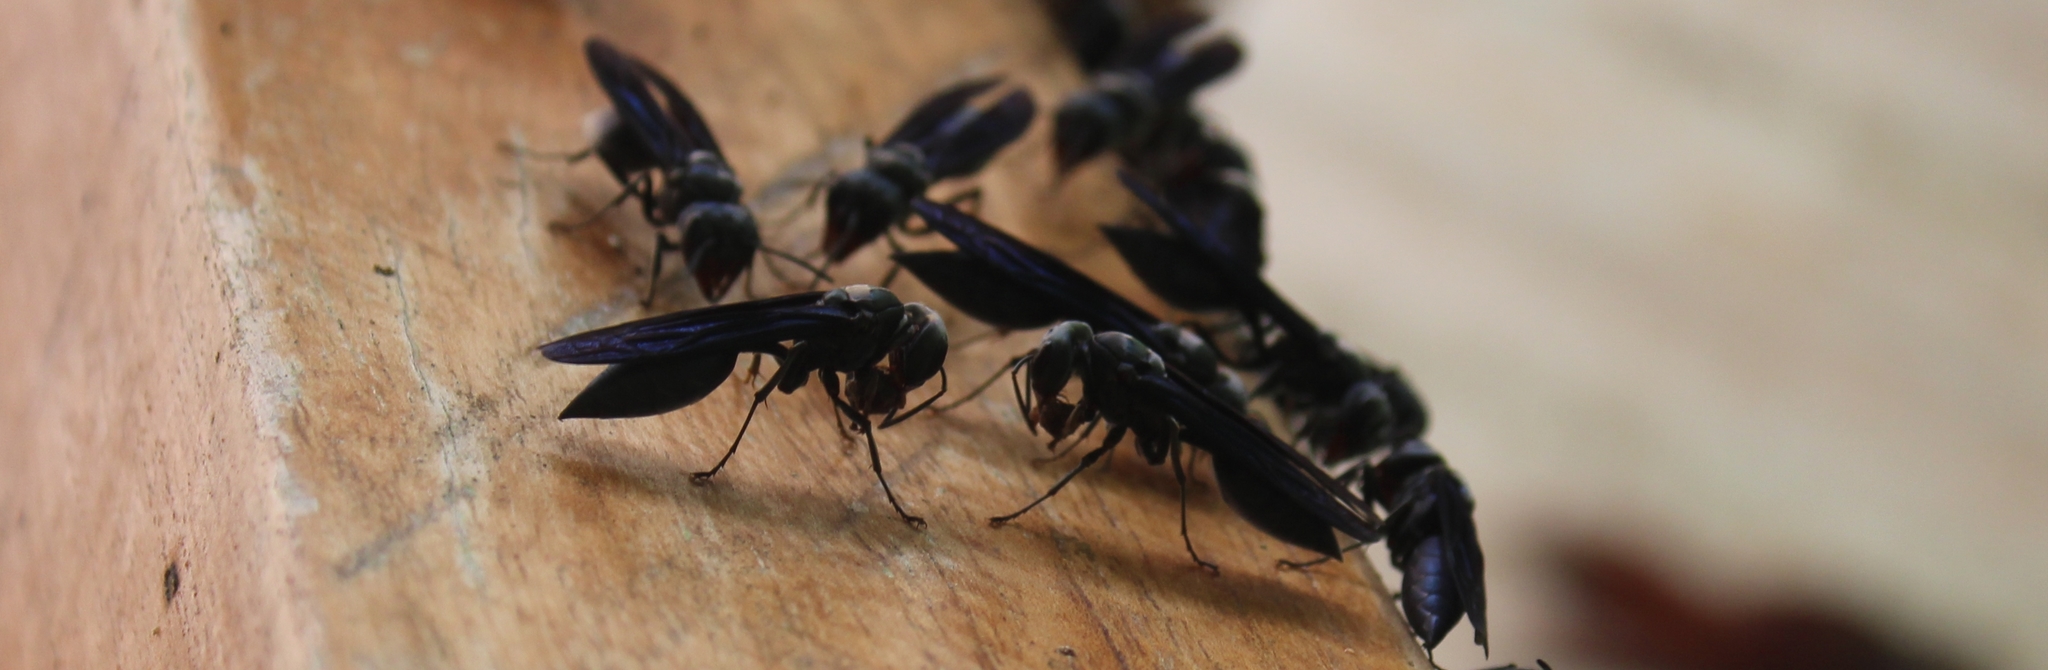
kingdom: Animalia
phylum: Arthropoda
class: Insecta
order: Hymenoptera
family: Vespidae
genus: Synoeca
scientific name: Synoeca septentrionalis
